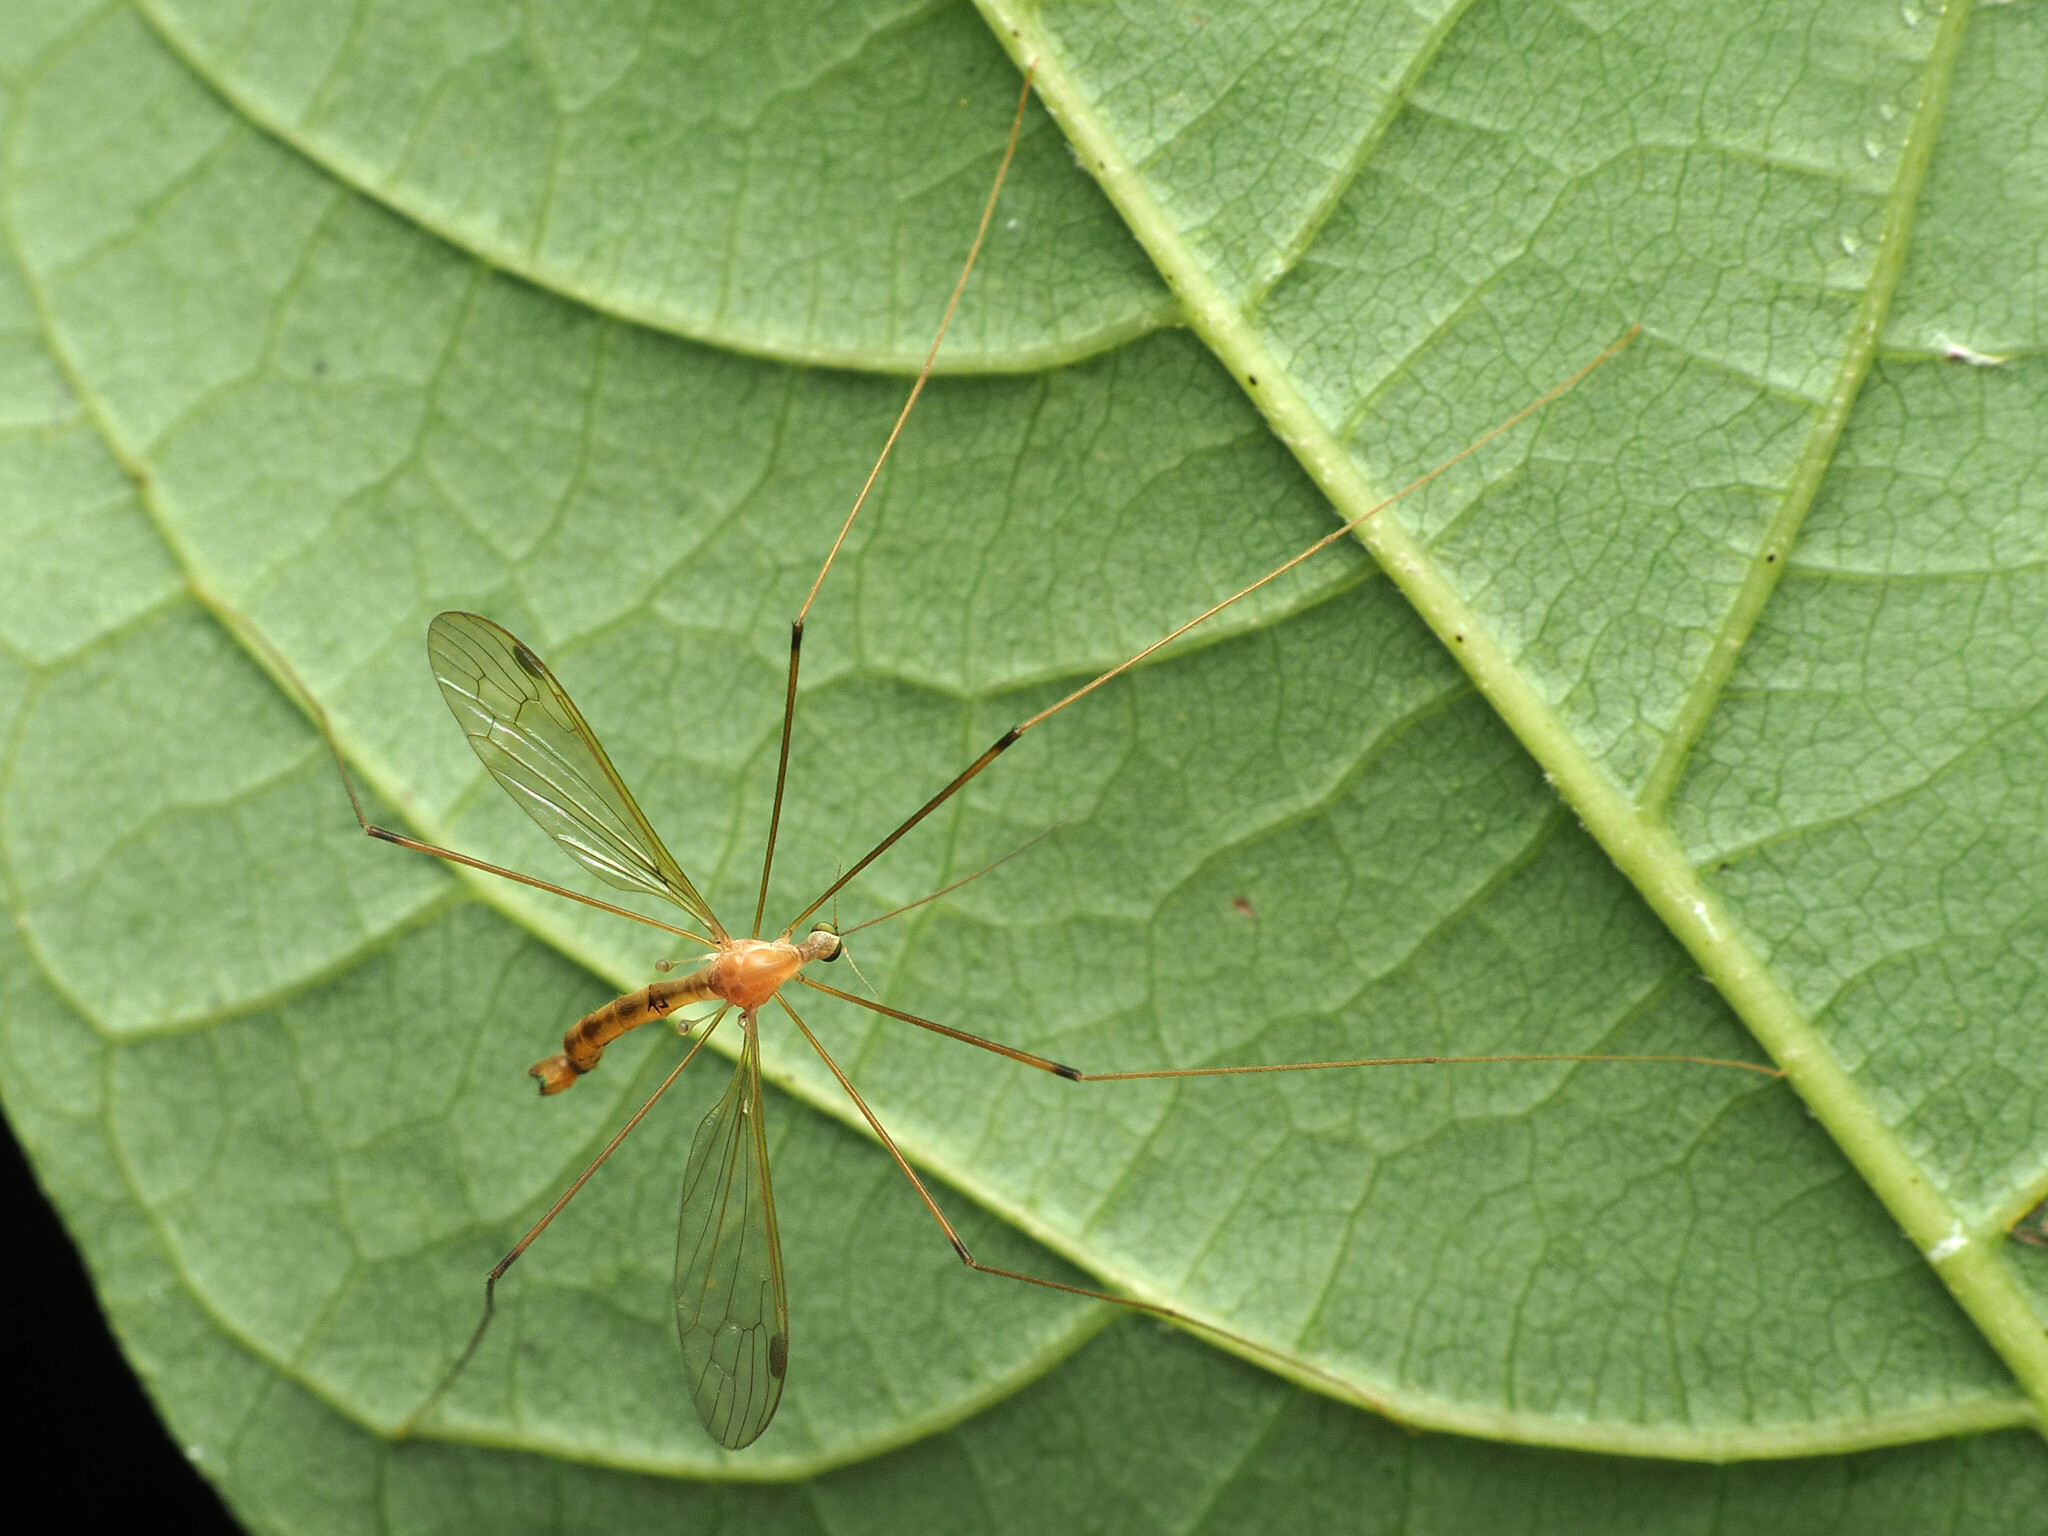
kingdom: Animalia
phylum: Arthropoda
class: Insecta
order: Diptera
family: Limoniidae
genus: Elephantomyia
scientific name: Elephantomyia westwoodi
